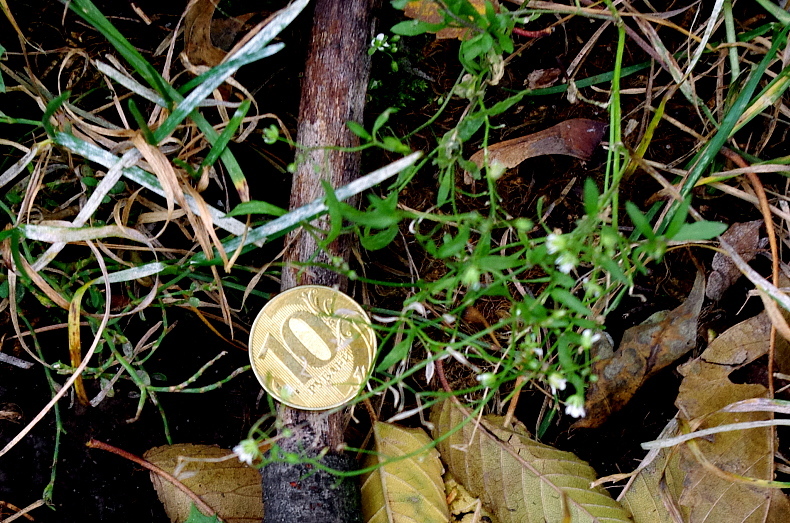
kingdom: Plantae
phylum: Tracheophyta
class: Magnoliopsida
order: Brassicales
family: Brassicaceae
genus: Capsella
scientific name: Capsella bursa-pastoris
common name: Shepherd's purse
